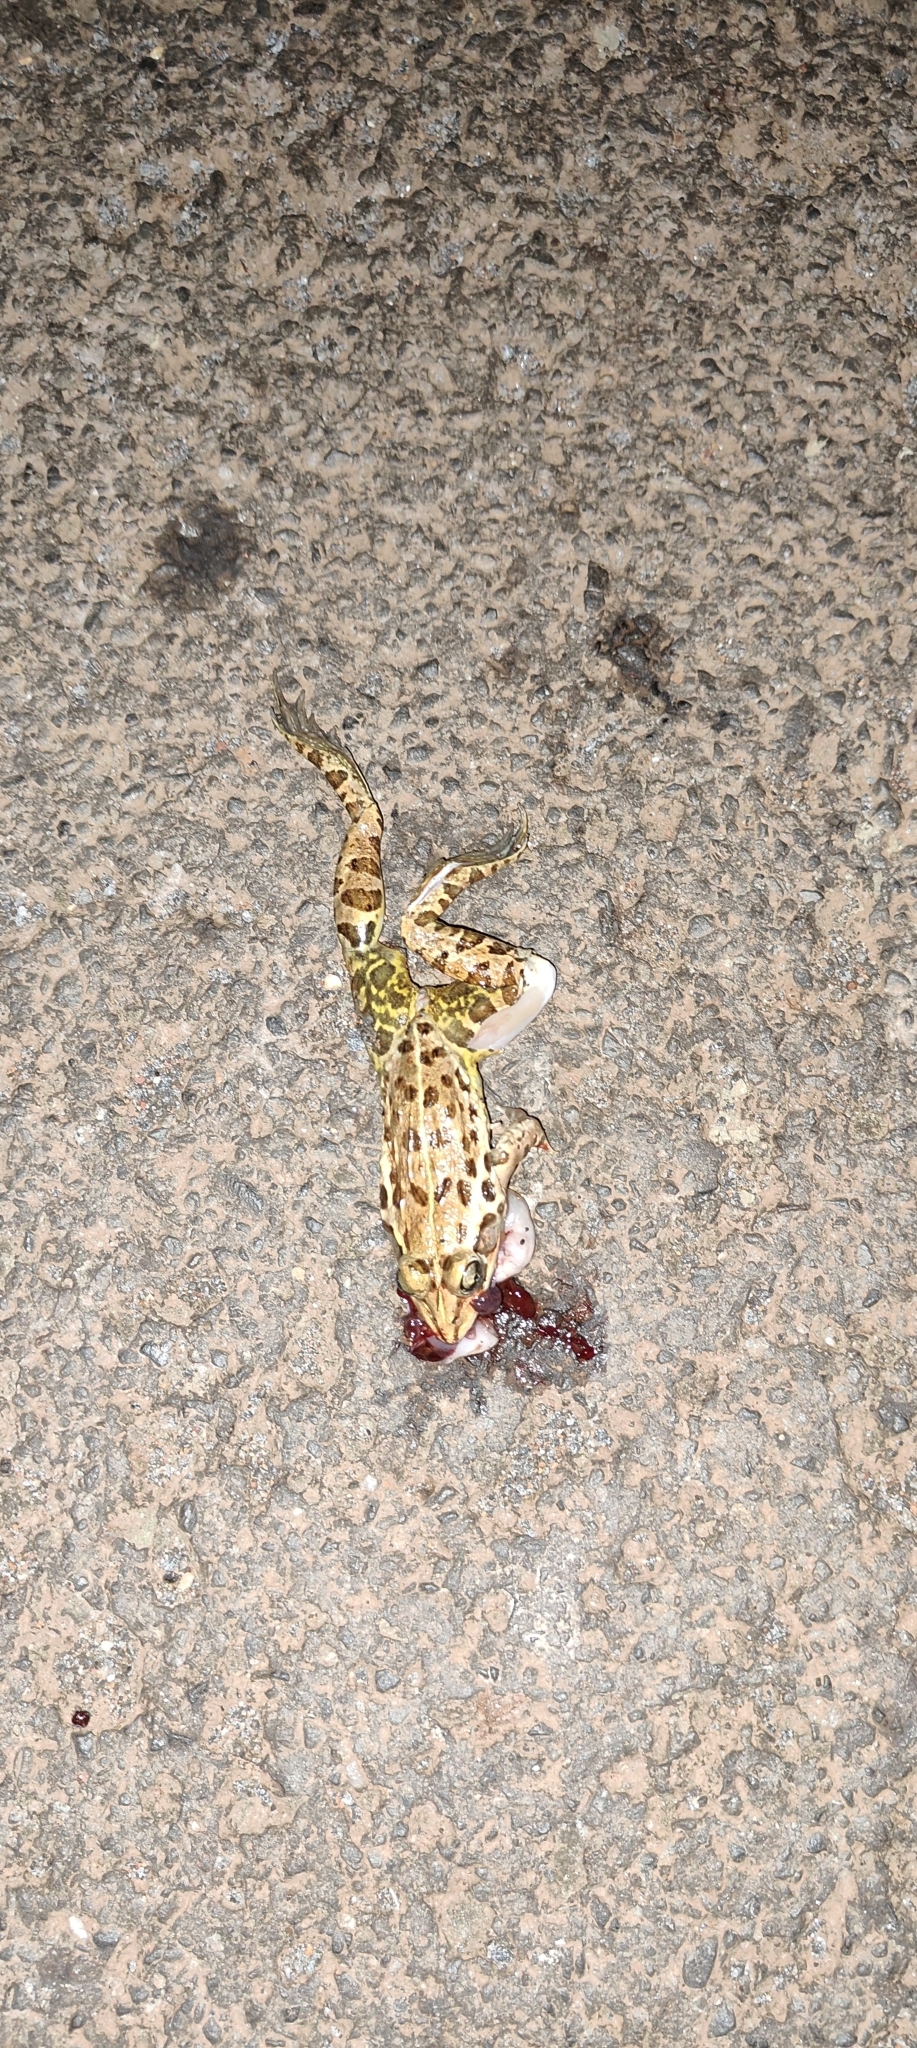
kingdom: Animalia
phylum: Chordata
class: Amphibia
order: Anura
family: Dicroglossidae
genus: Hoplobatrachus
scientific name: Hoplobatrachus tigerinus
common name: Indian bullfrog
